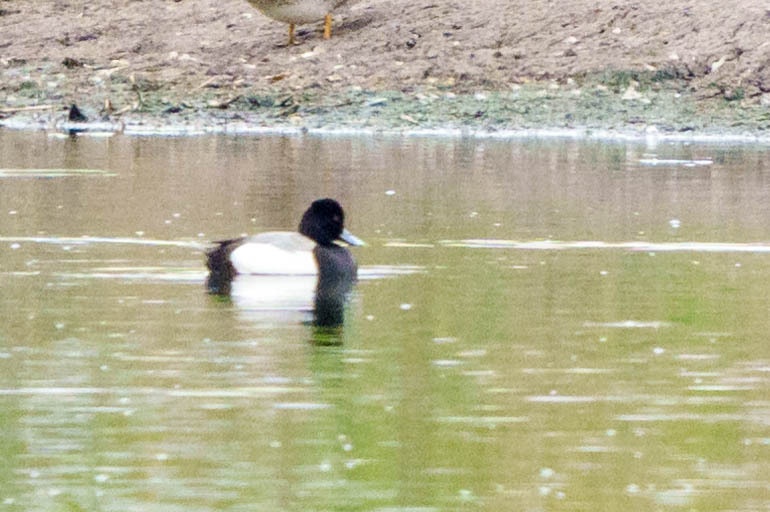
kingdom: Animalia
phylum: Chordata
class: Aves
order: Anseriformes
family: Anatidae
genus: Aythya
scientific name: Aythya affinis
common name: Lesser scaup
